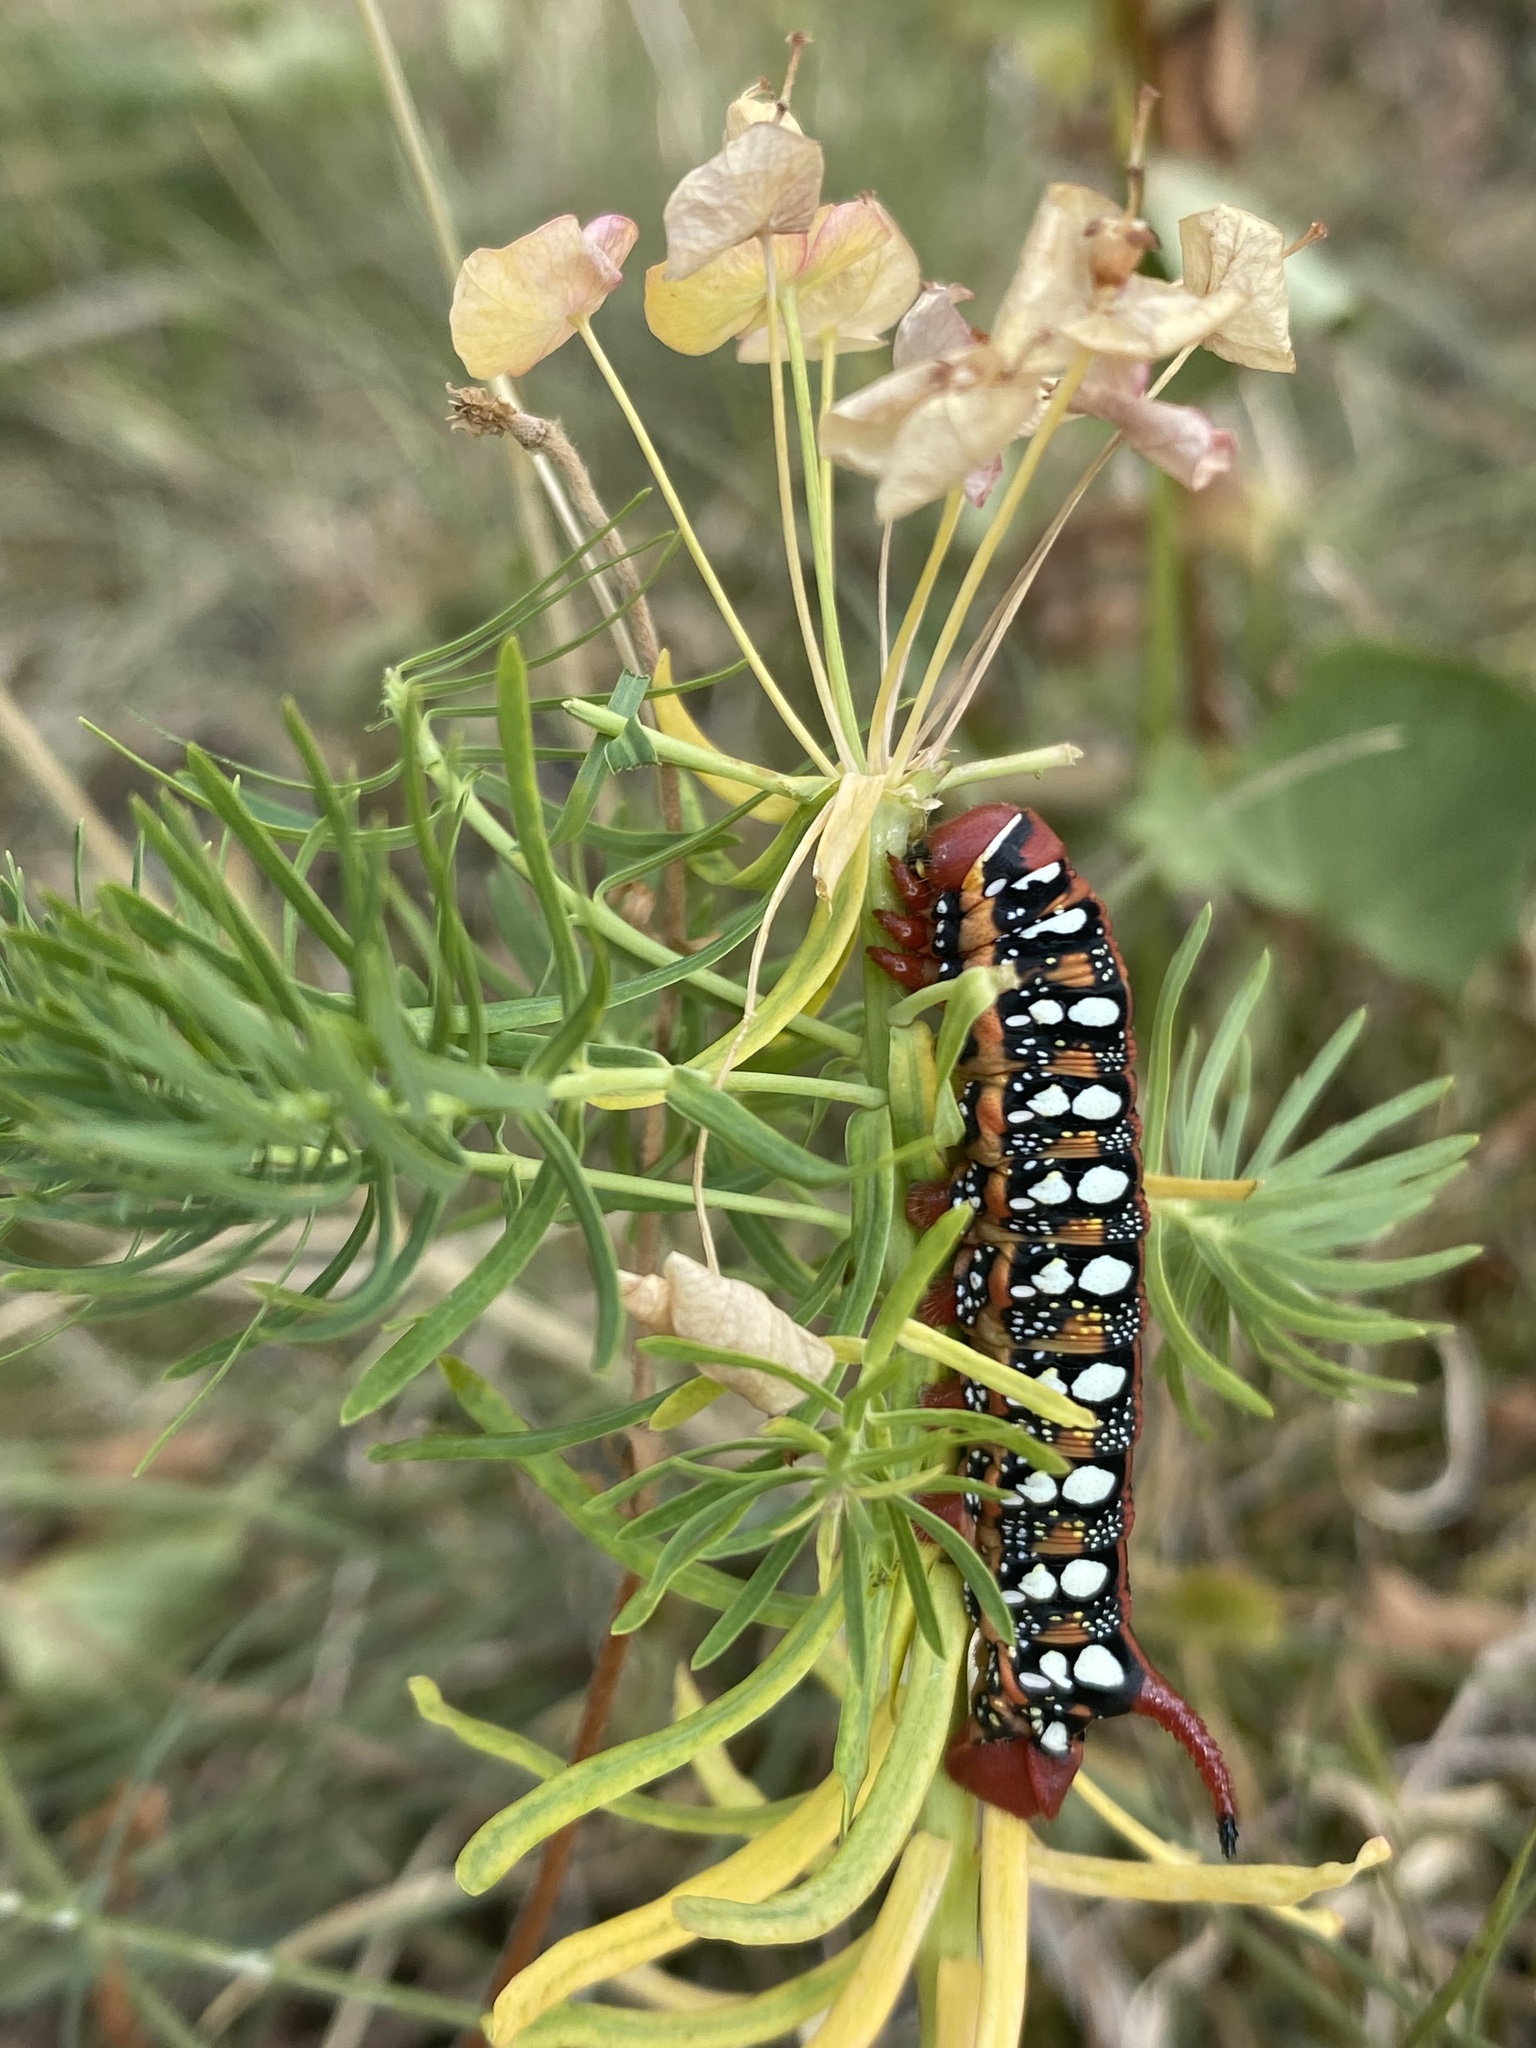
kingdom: Animalia
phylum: Arthropoda
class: Insecta
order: Lepidoptera
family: Sphingidae
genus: Hyles
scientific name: Hyles euphorbiae
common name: Spurge hawk-moth
